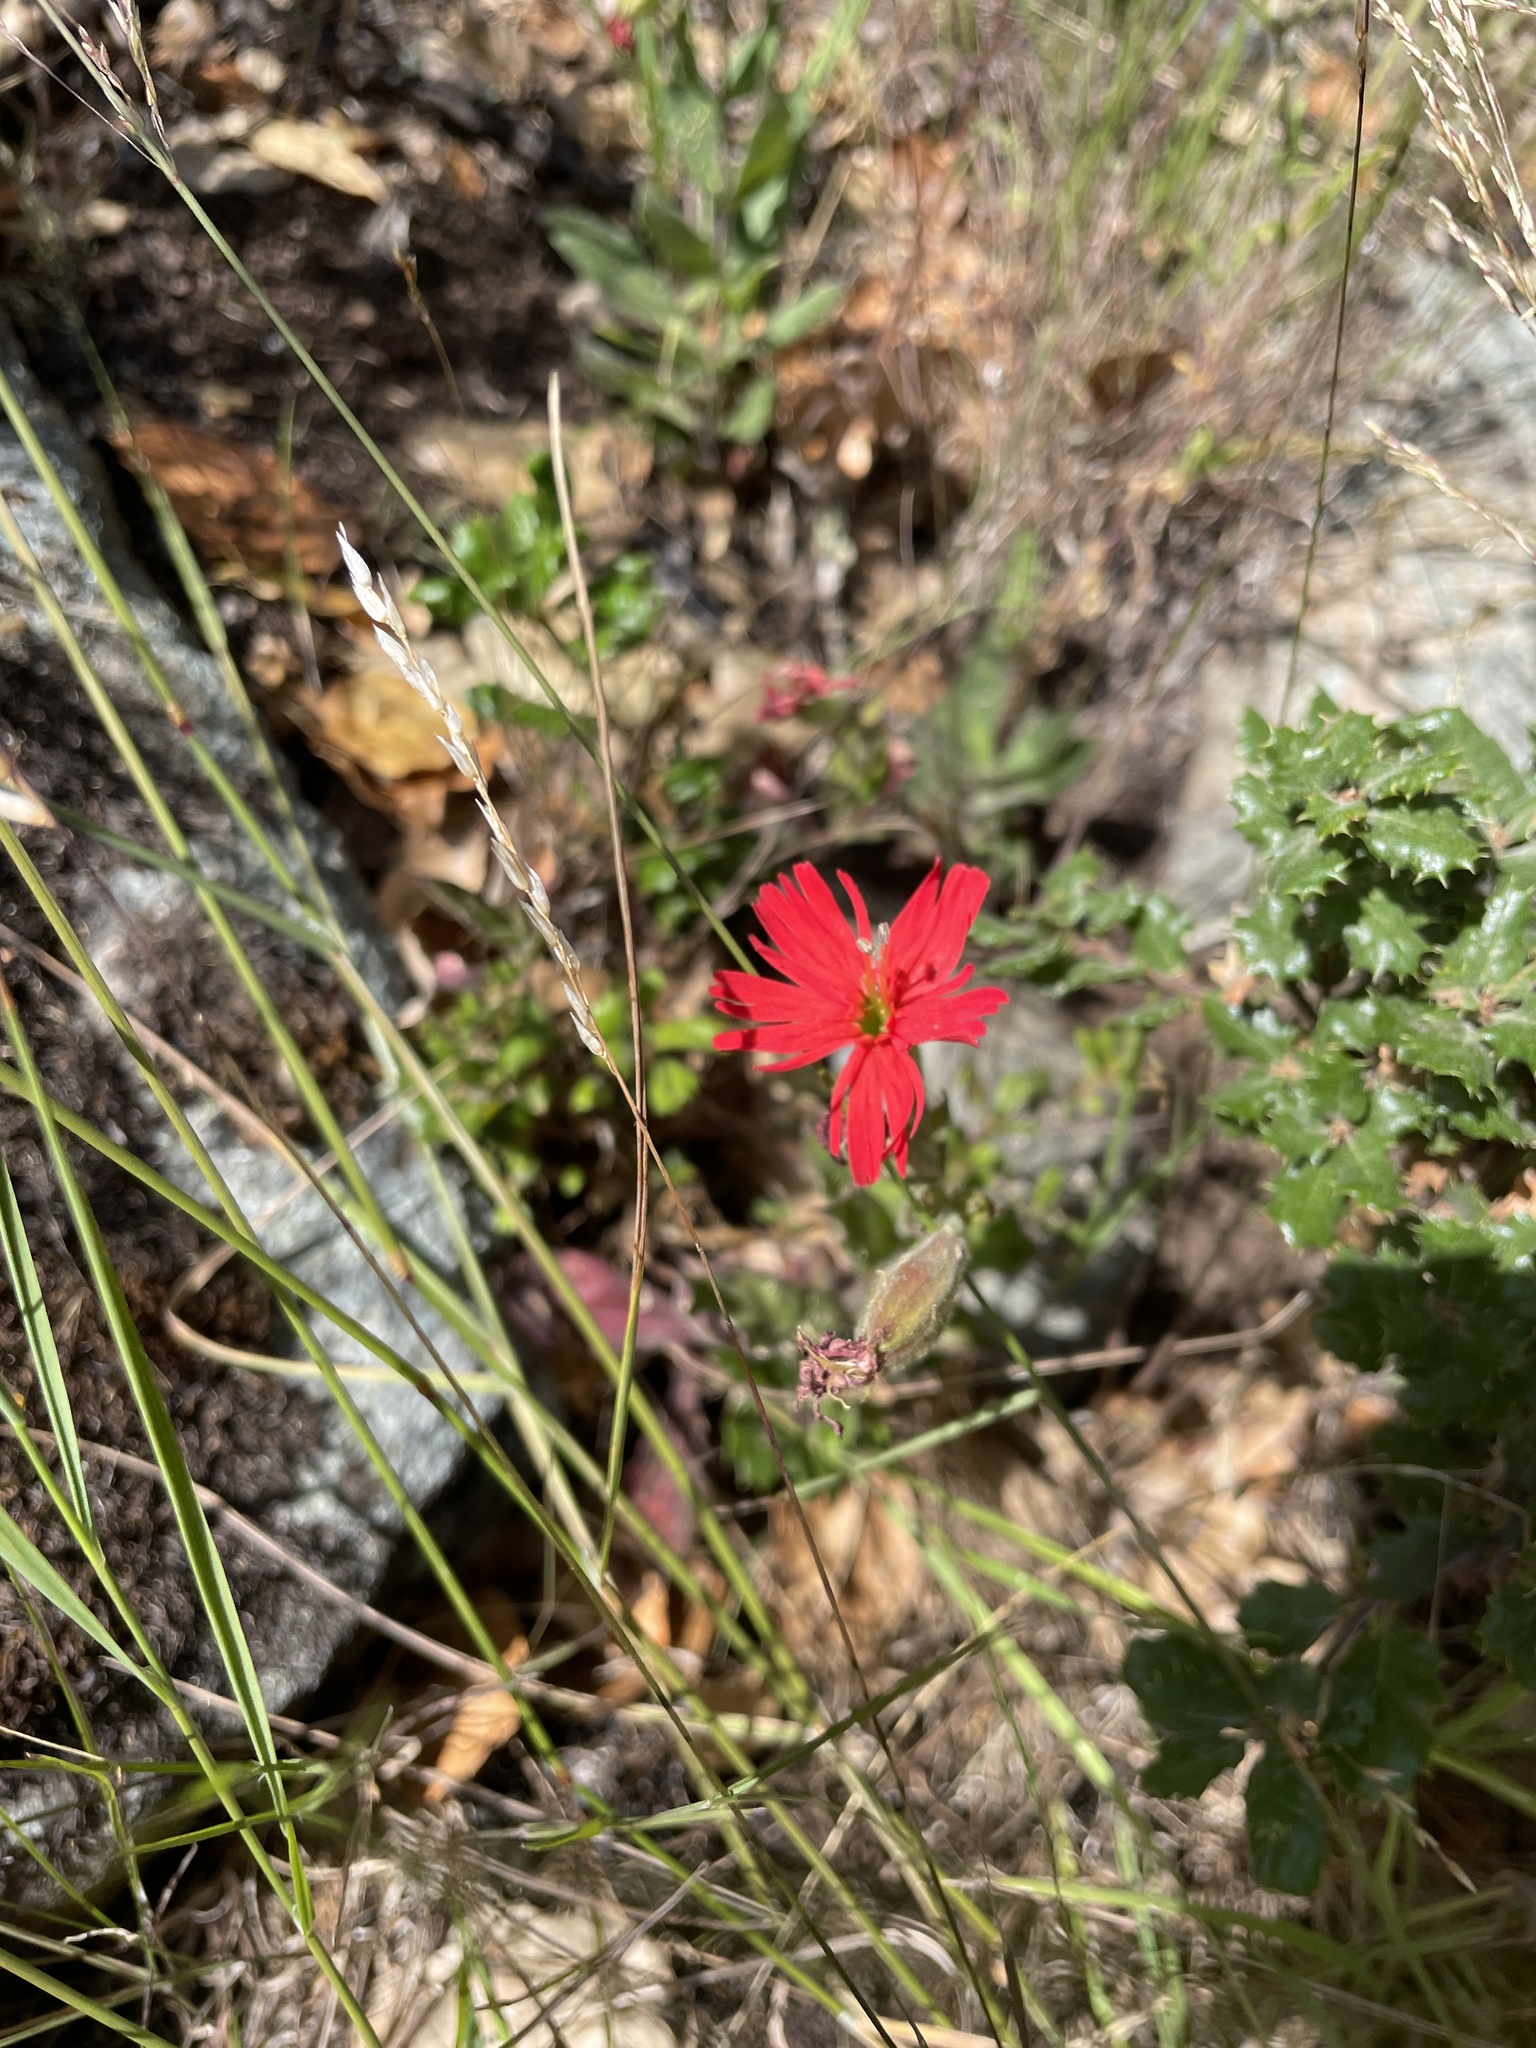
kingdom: Plantae
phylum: Tracheophyta
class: Magnoliopsida
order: Caryophyllales
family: Caryophyllaceae
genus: Silene
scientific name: Silene laciniata
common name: Indian-pink
